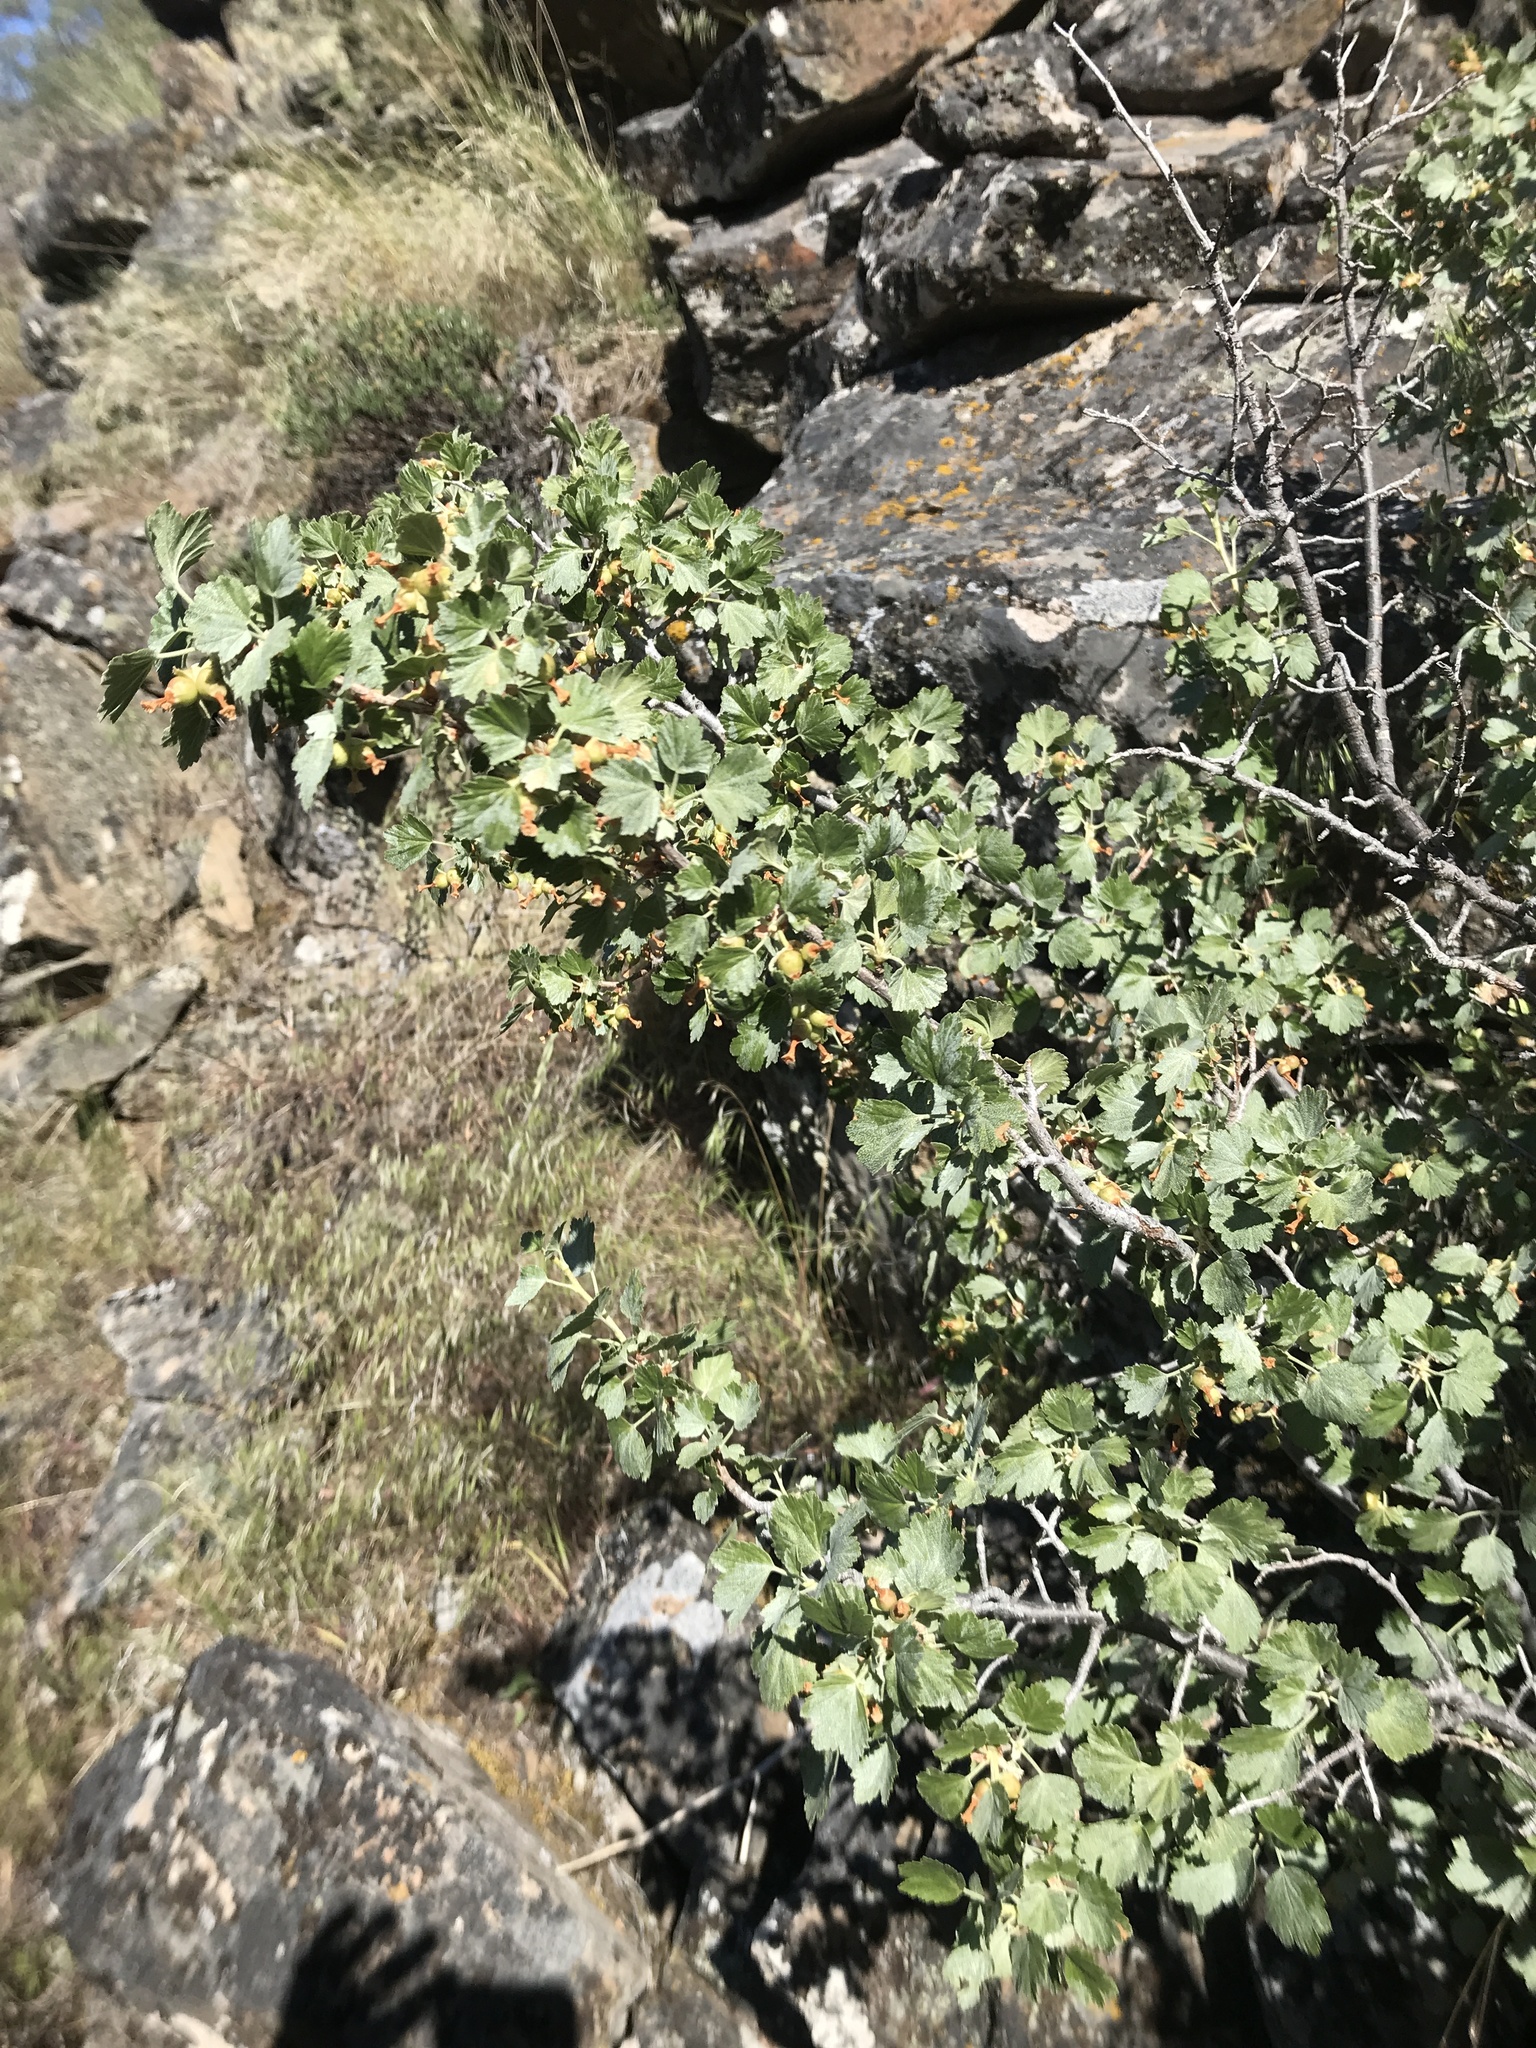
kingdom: Plantae
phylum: Tracheophyta
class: Magnoliopsida
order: Saxifragales
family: Grossulariaceae
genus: Ribes
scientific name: Ribes cereum
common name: Wax currant
